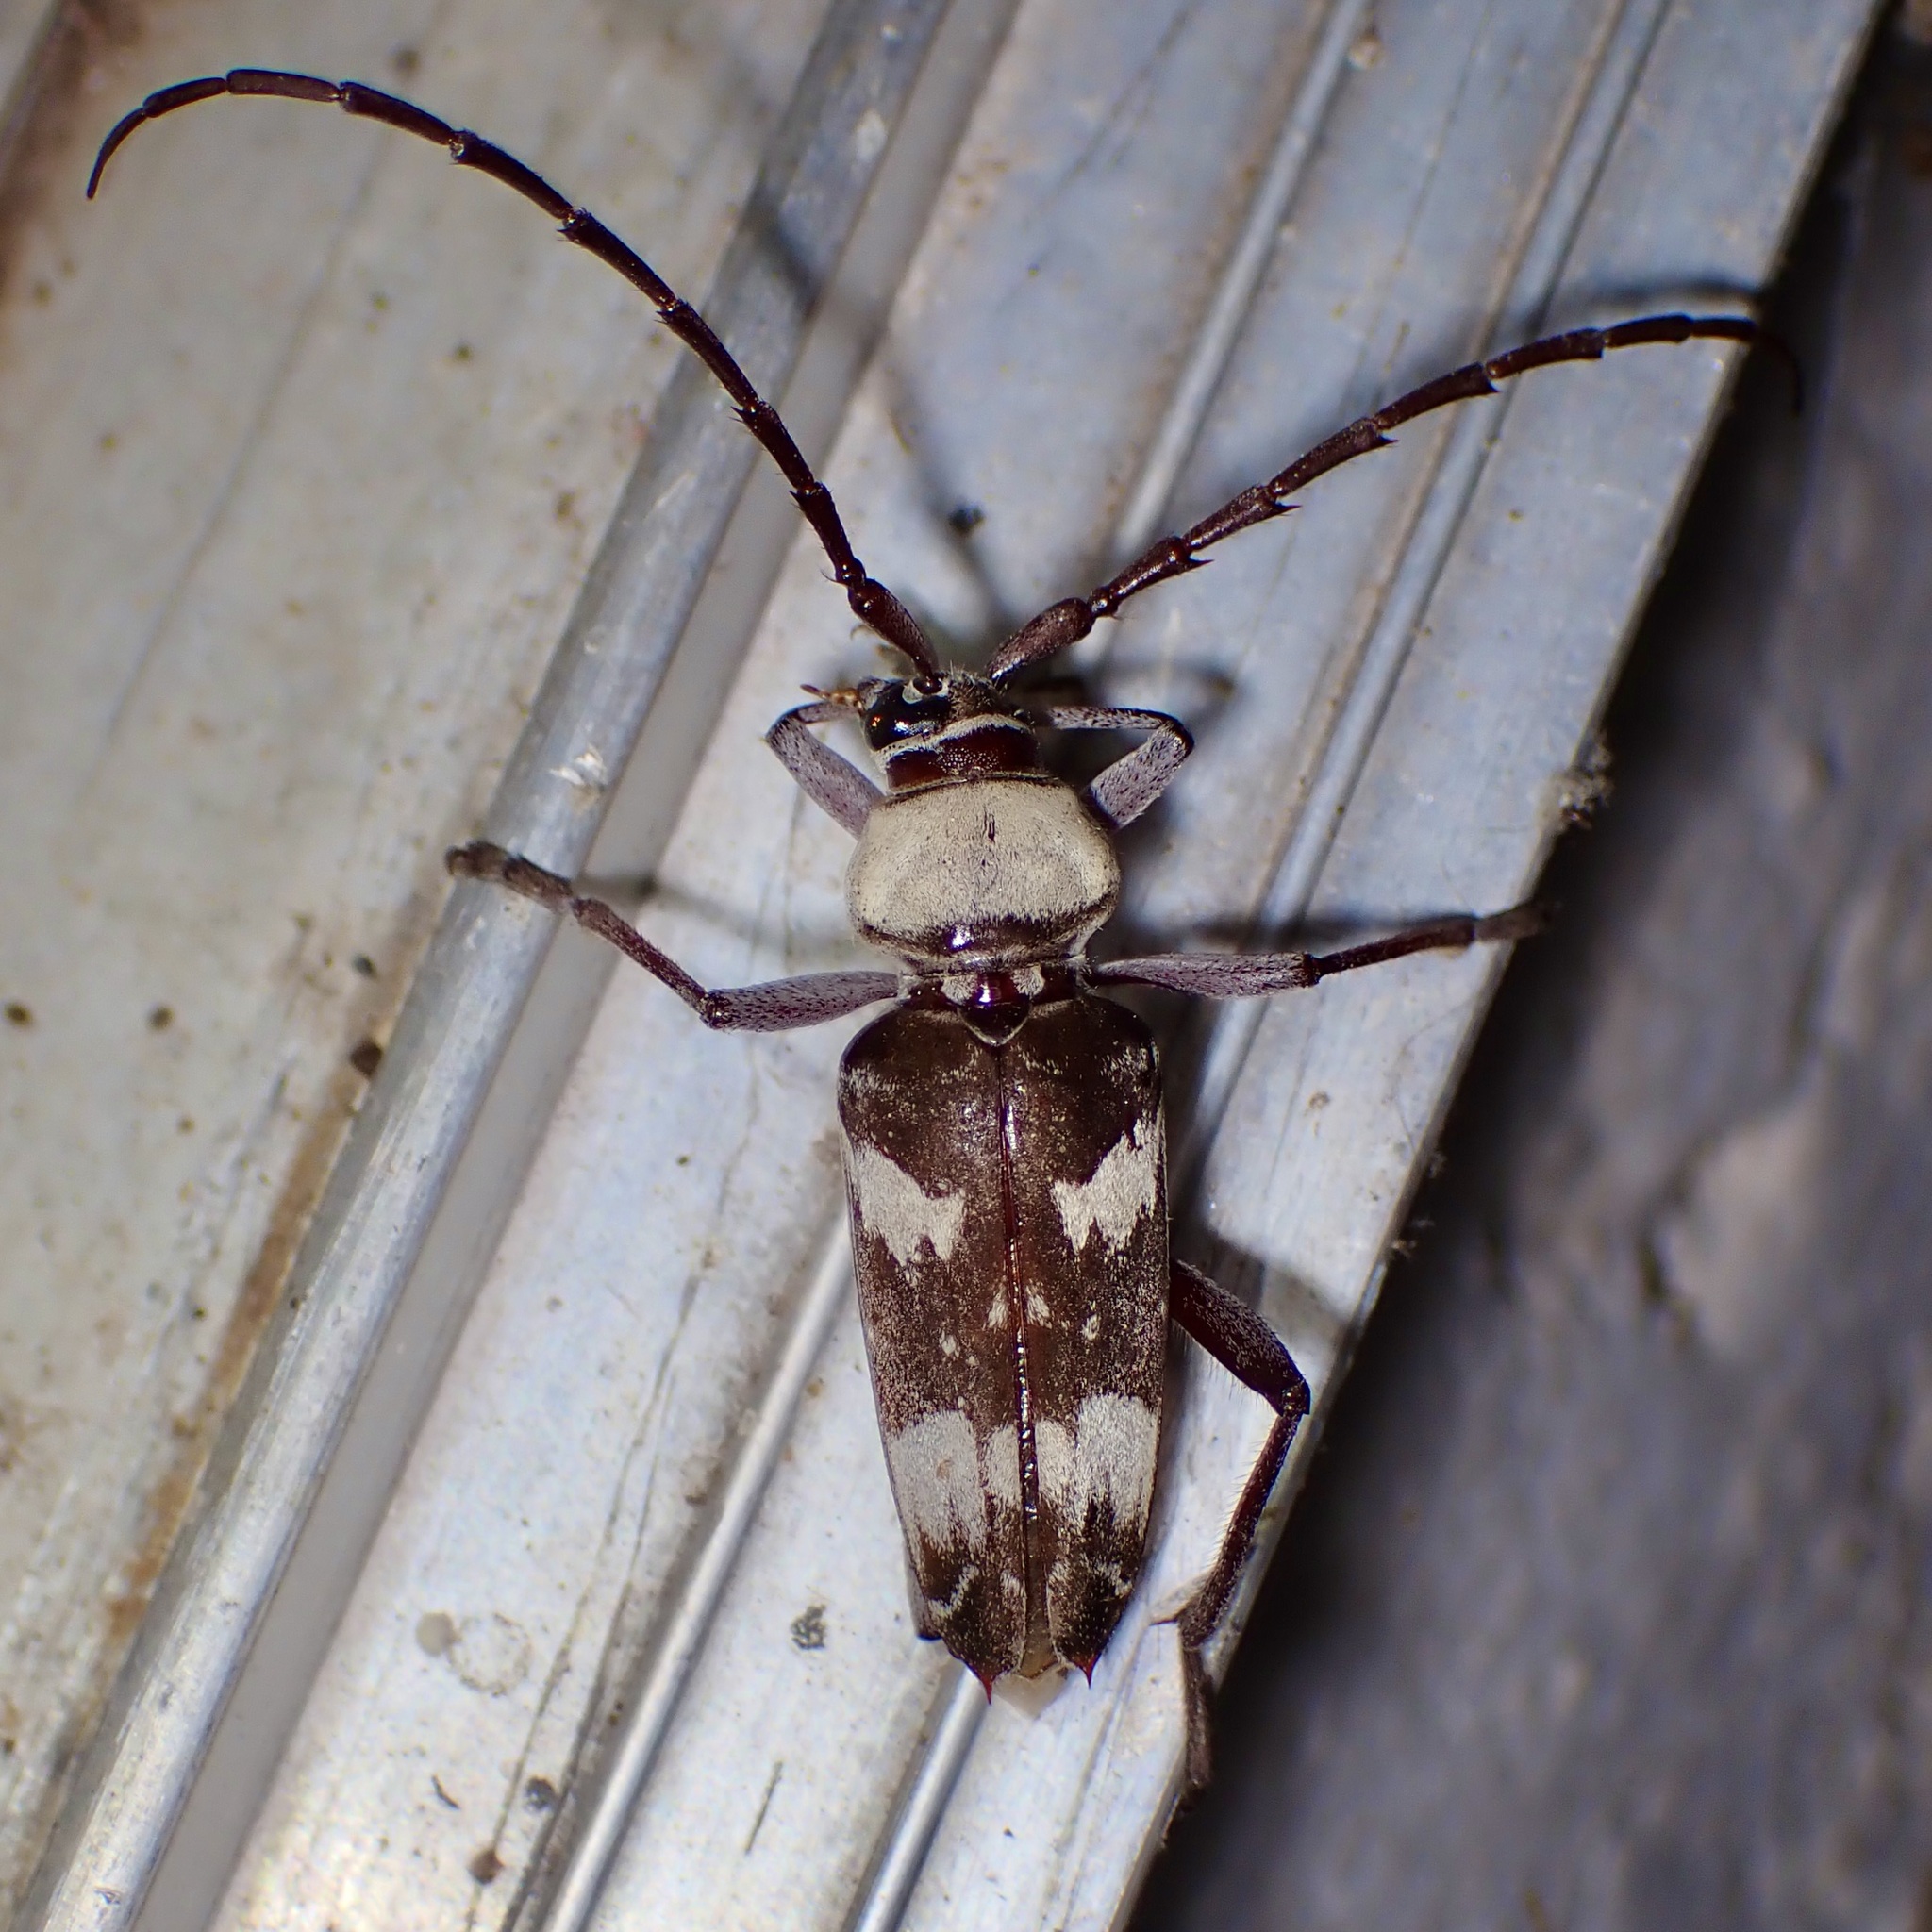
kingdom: Animalia
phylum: Arthropoda
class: Insecta
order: Coleoptera
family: Cerambycidae
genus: Megacyllene
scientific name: Megacyllene antennata
